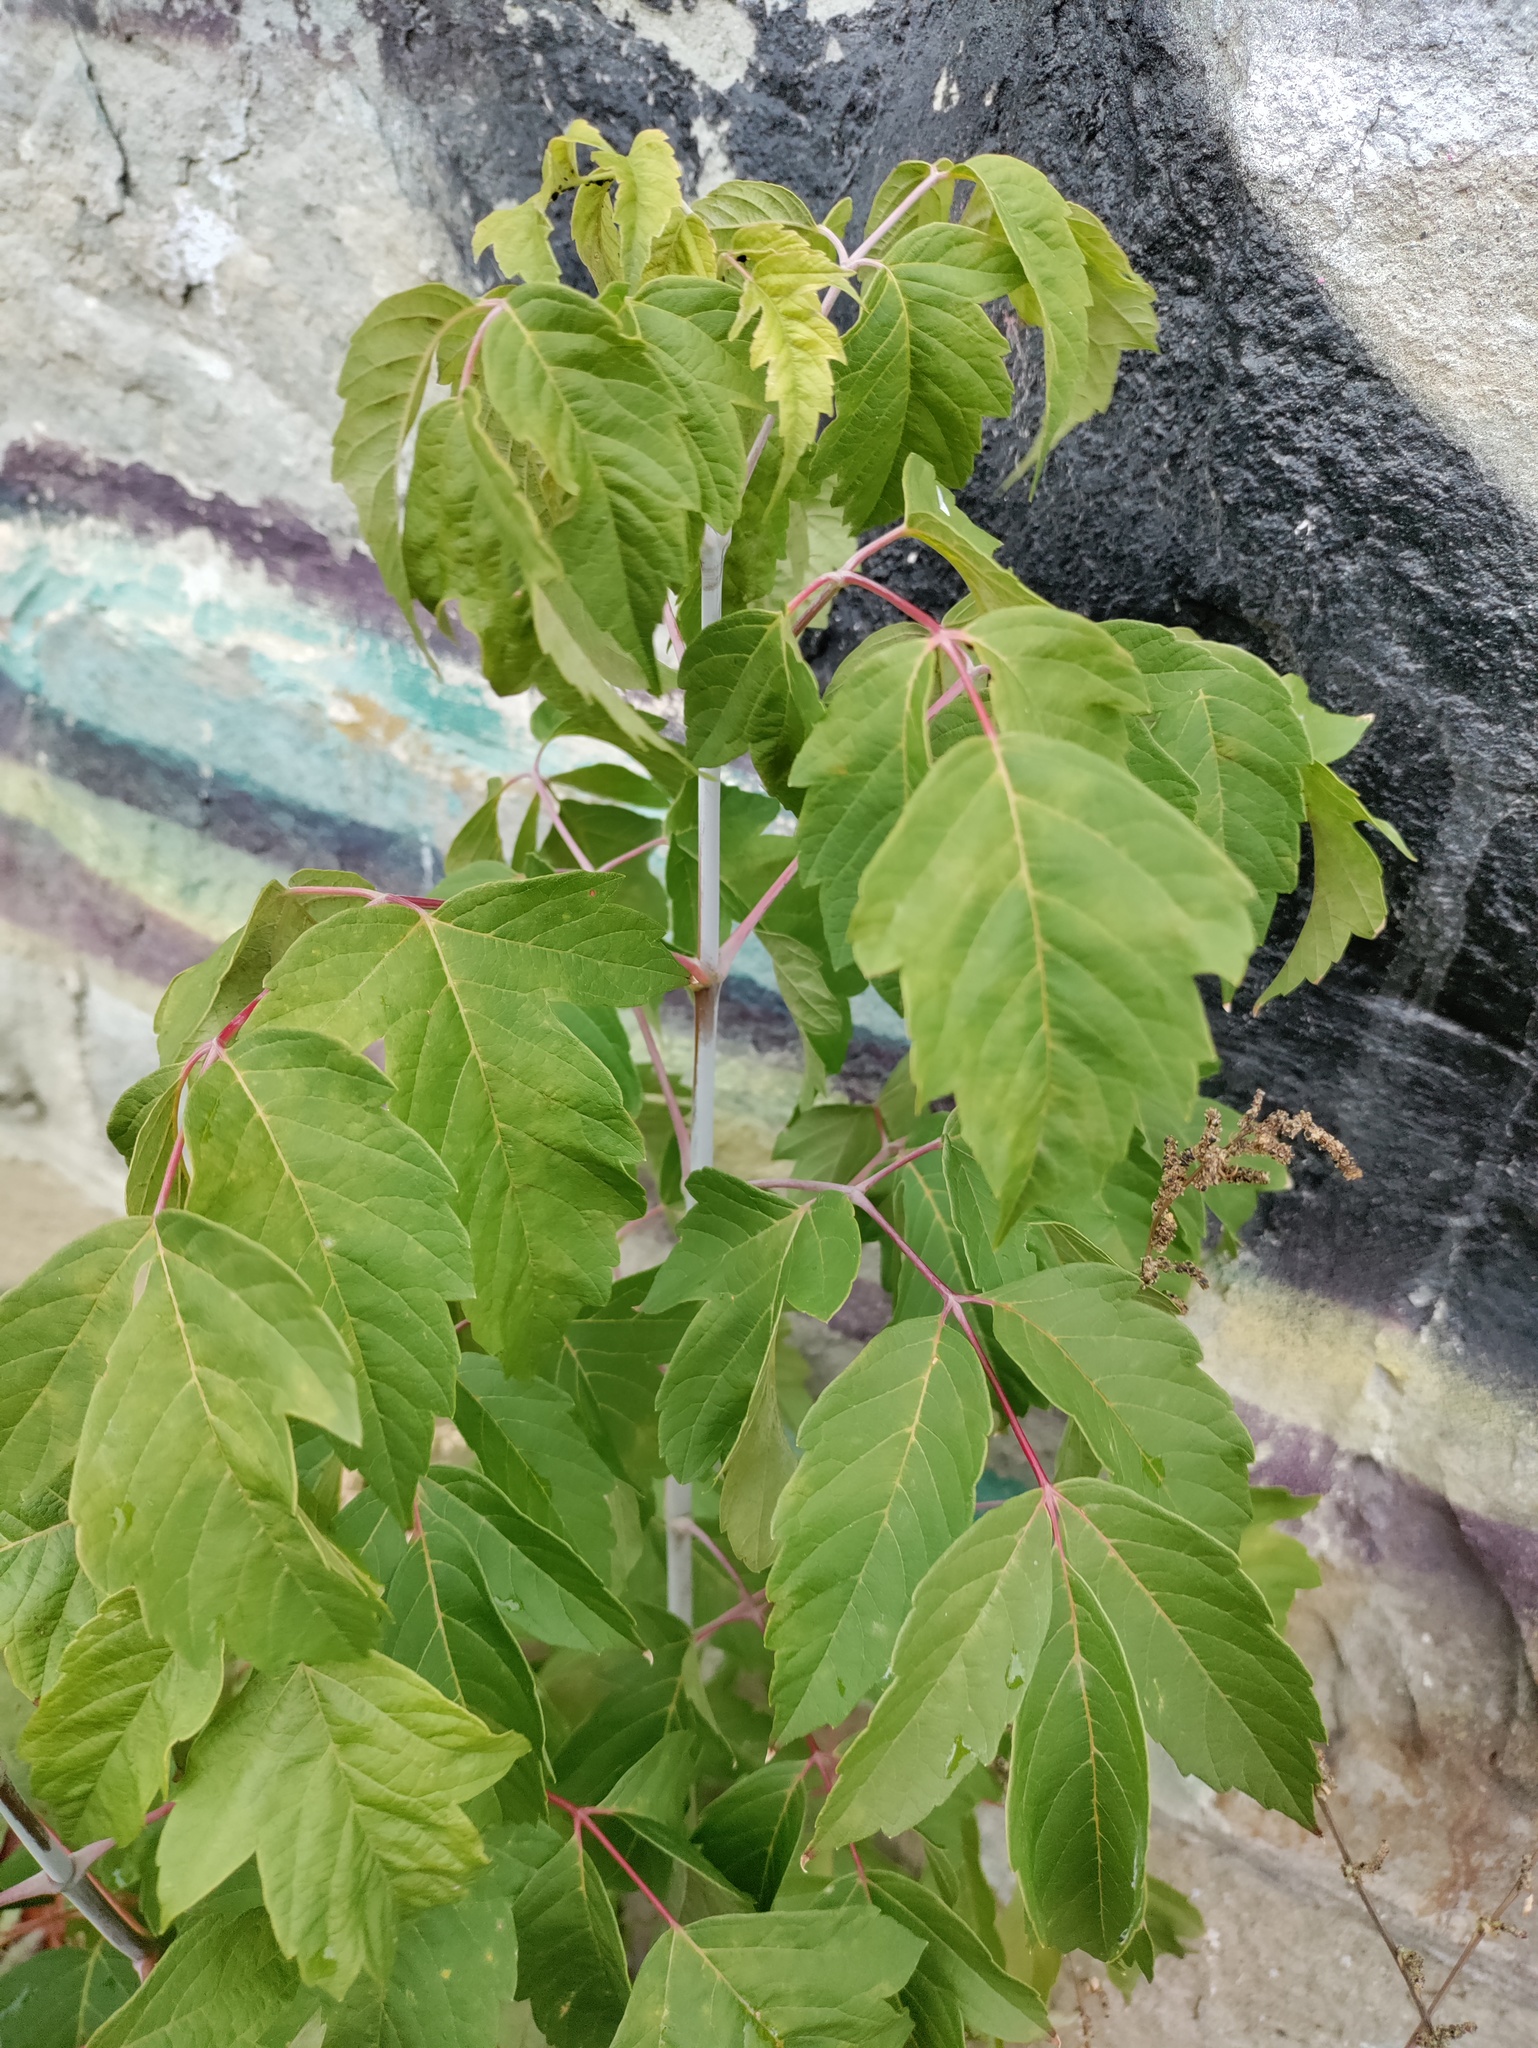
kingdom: Plantae
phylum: Tracheophyta
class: Magnoliopsida
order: Sapindales
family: Sapindaceae
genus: Acer
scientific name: Acer negundo
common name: Ashleaf maple
